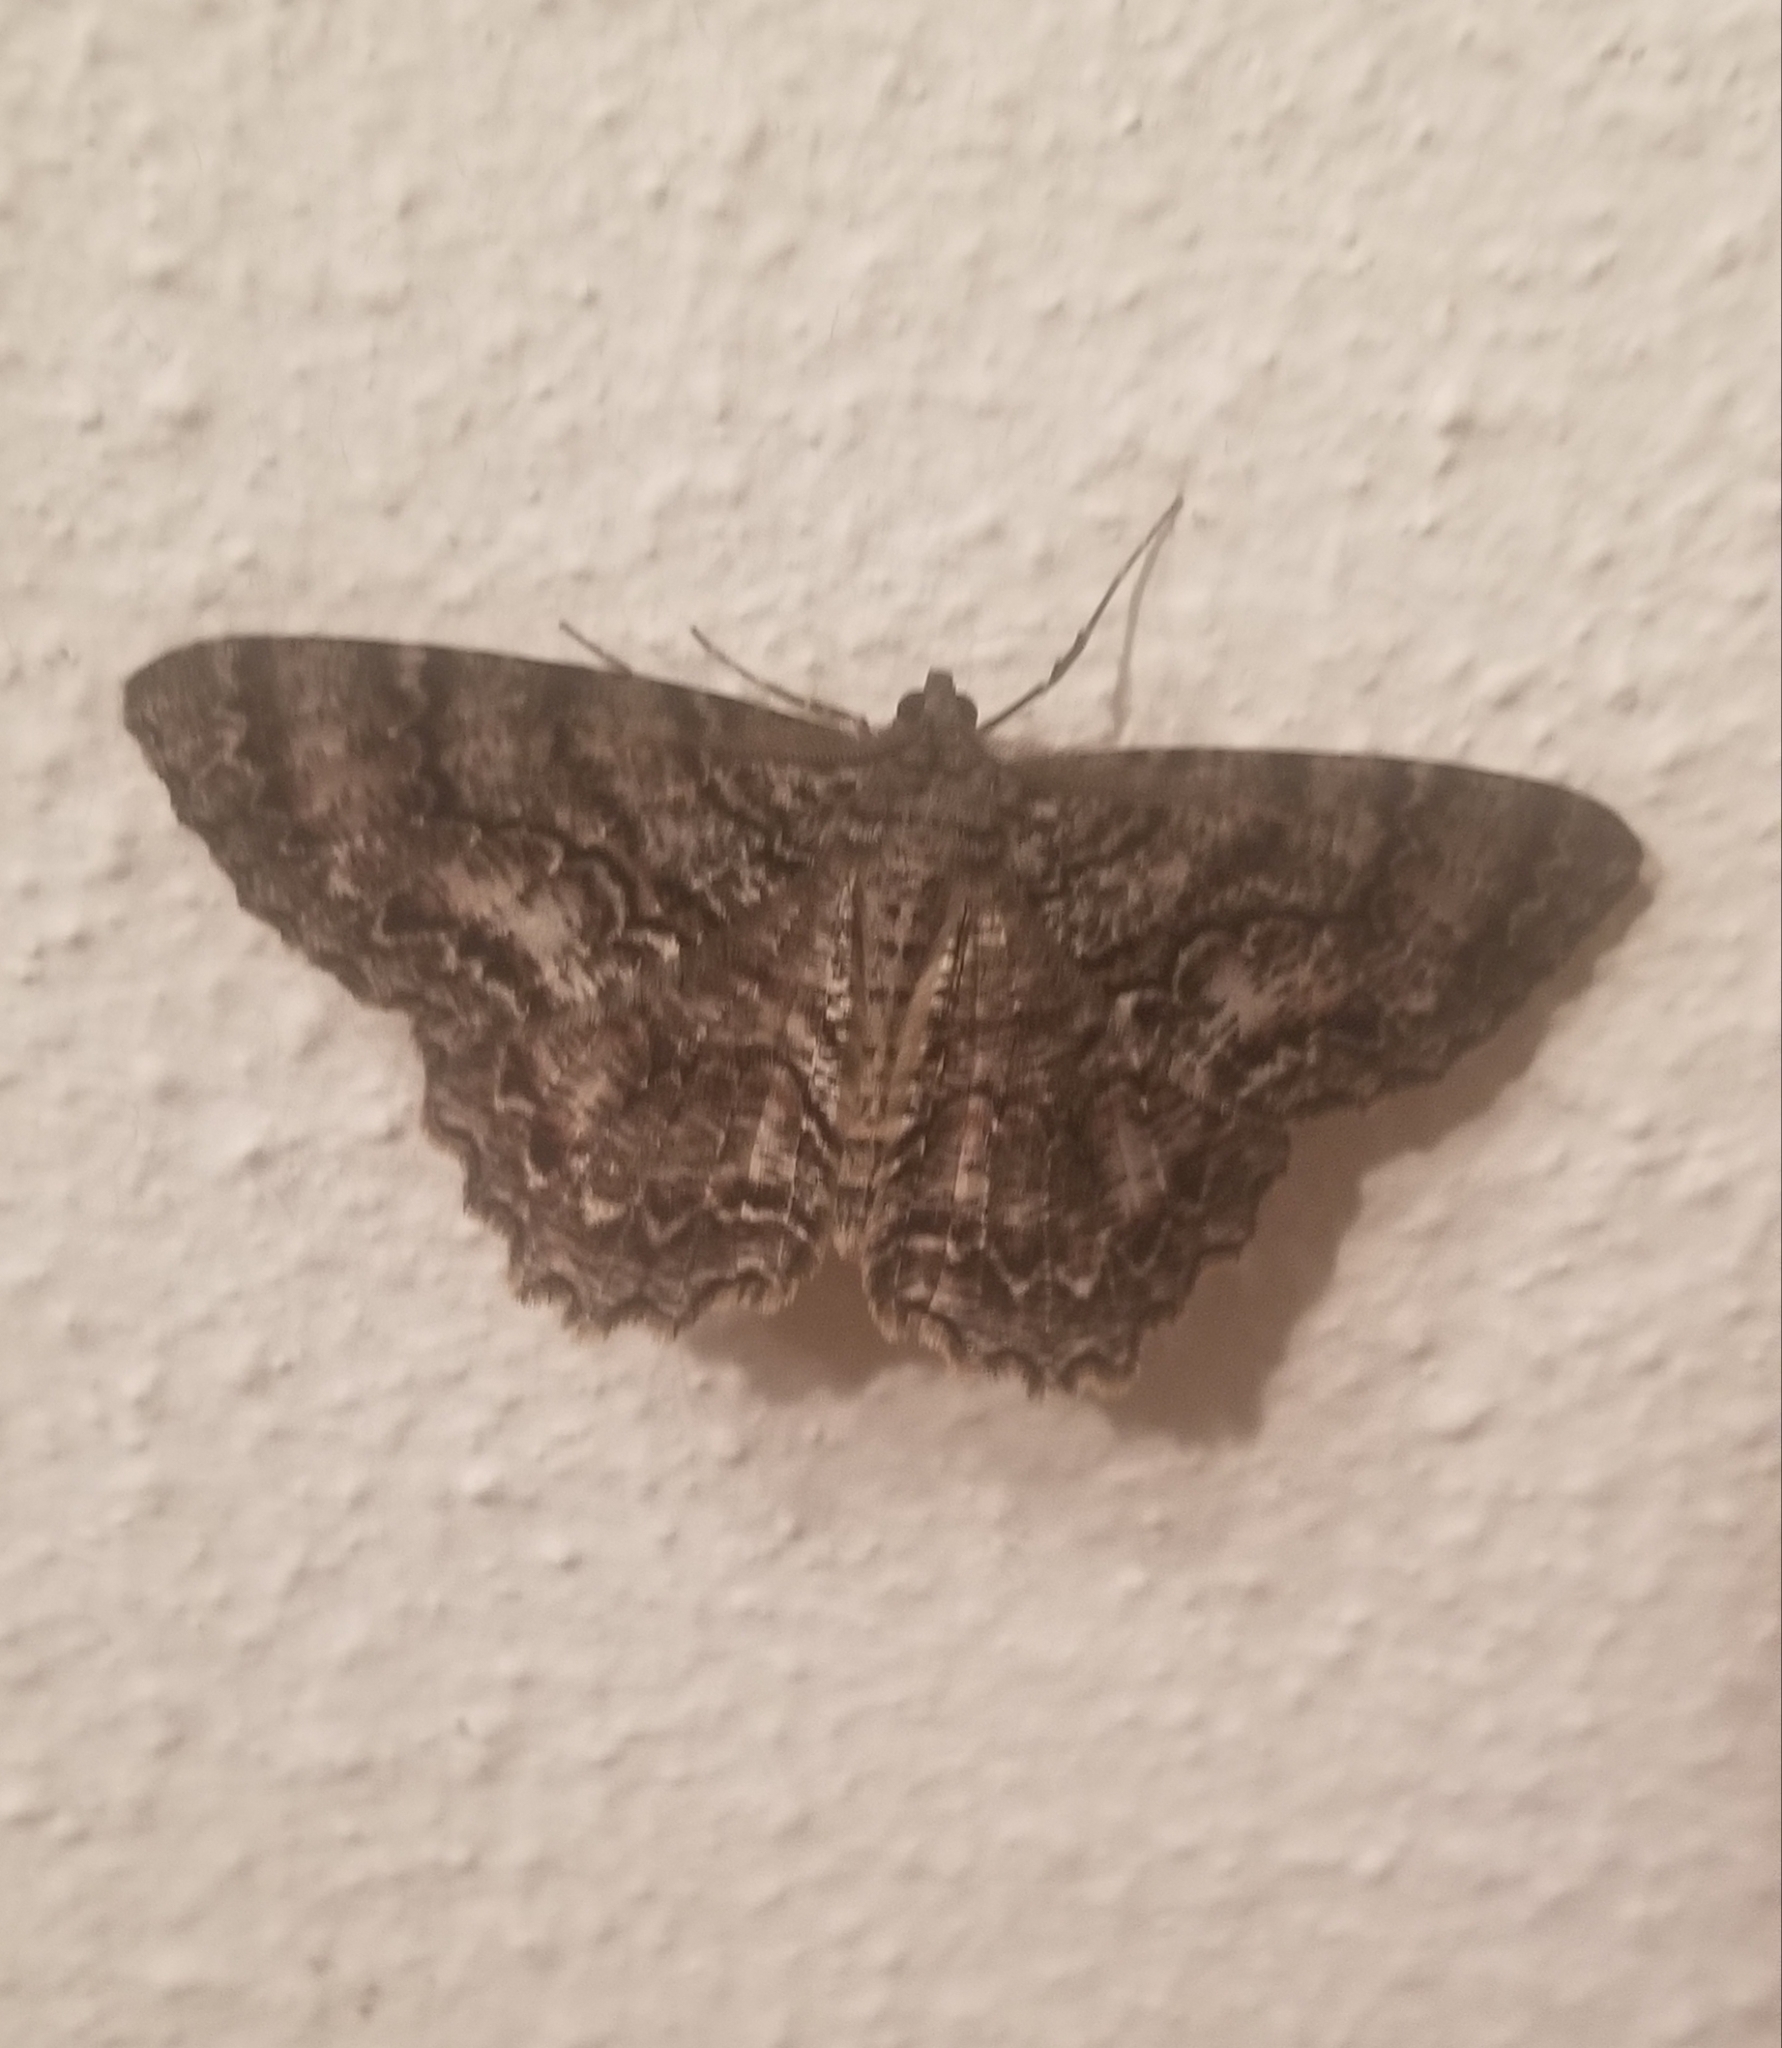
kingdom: Animalia
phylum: Arthropoda
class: Insecta
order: Lepidoptera
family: Geometridae
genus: Epimecis
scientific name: Epimecis hortaria
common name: Tulip-tree beauty
